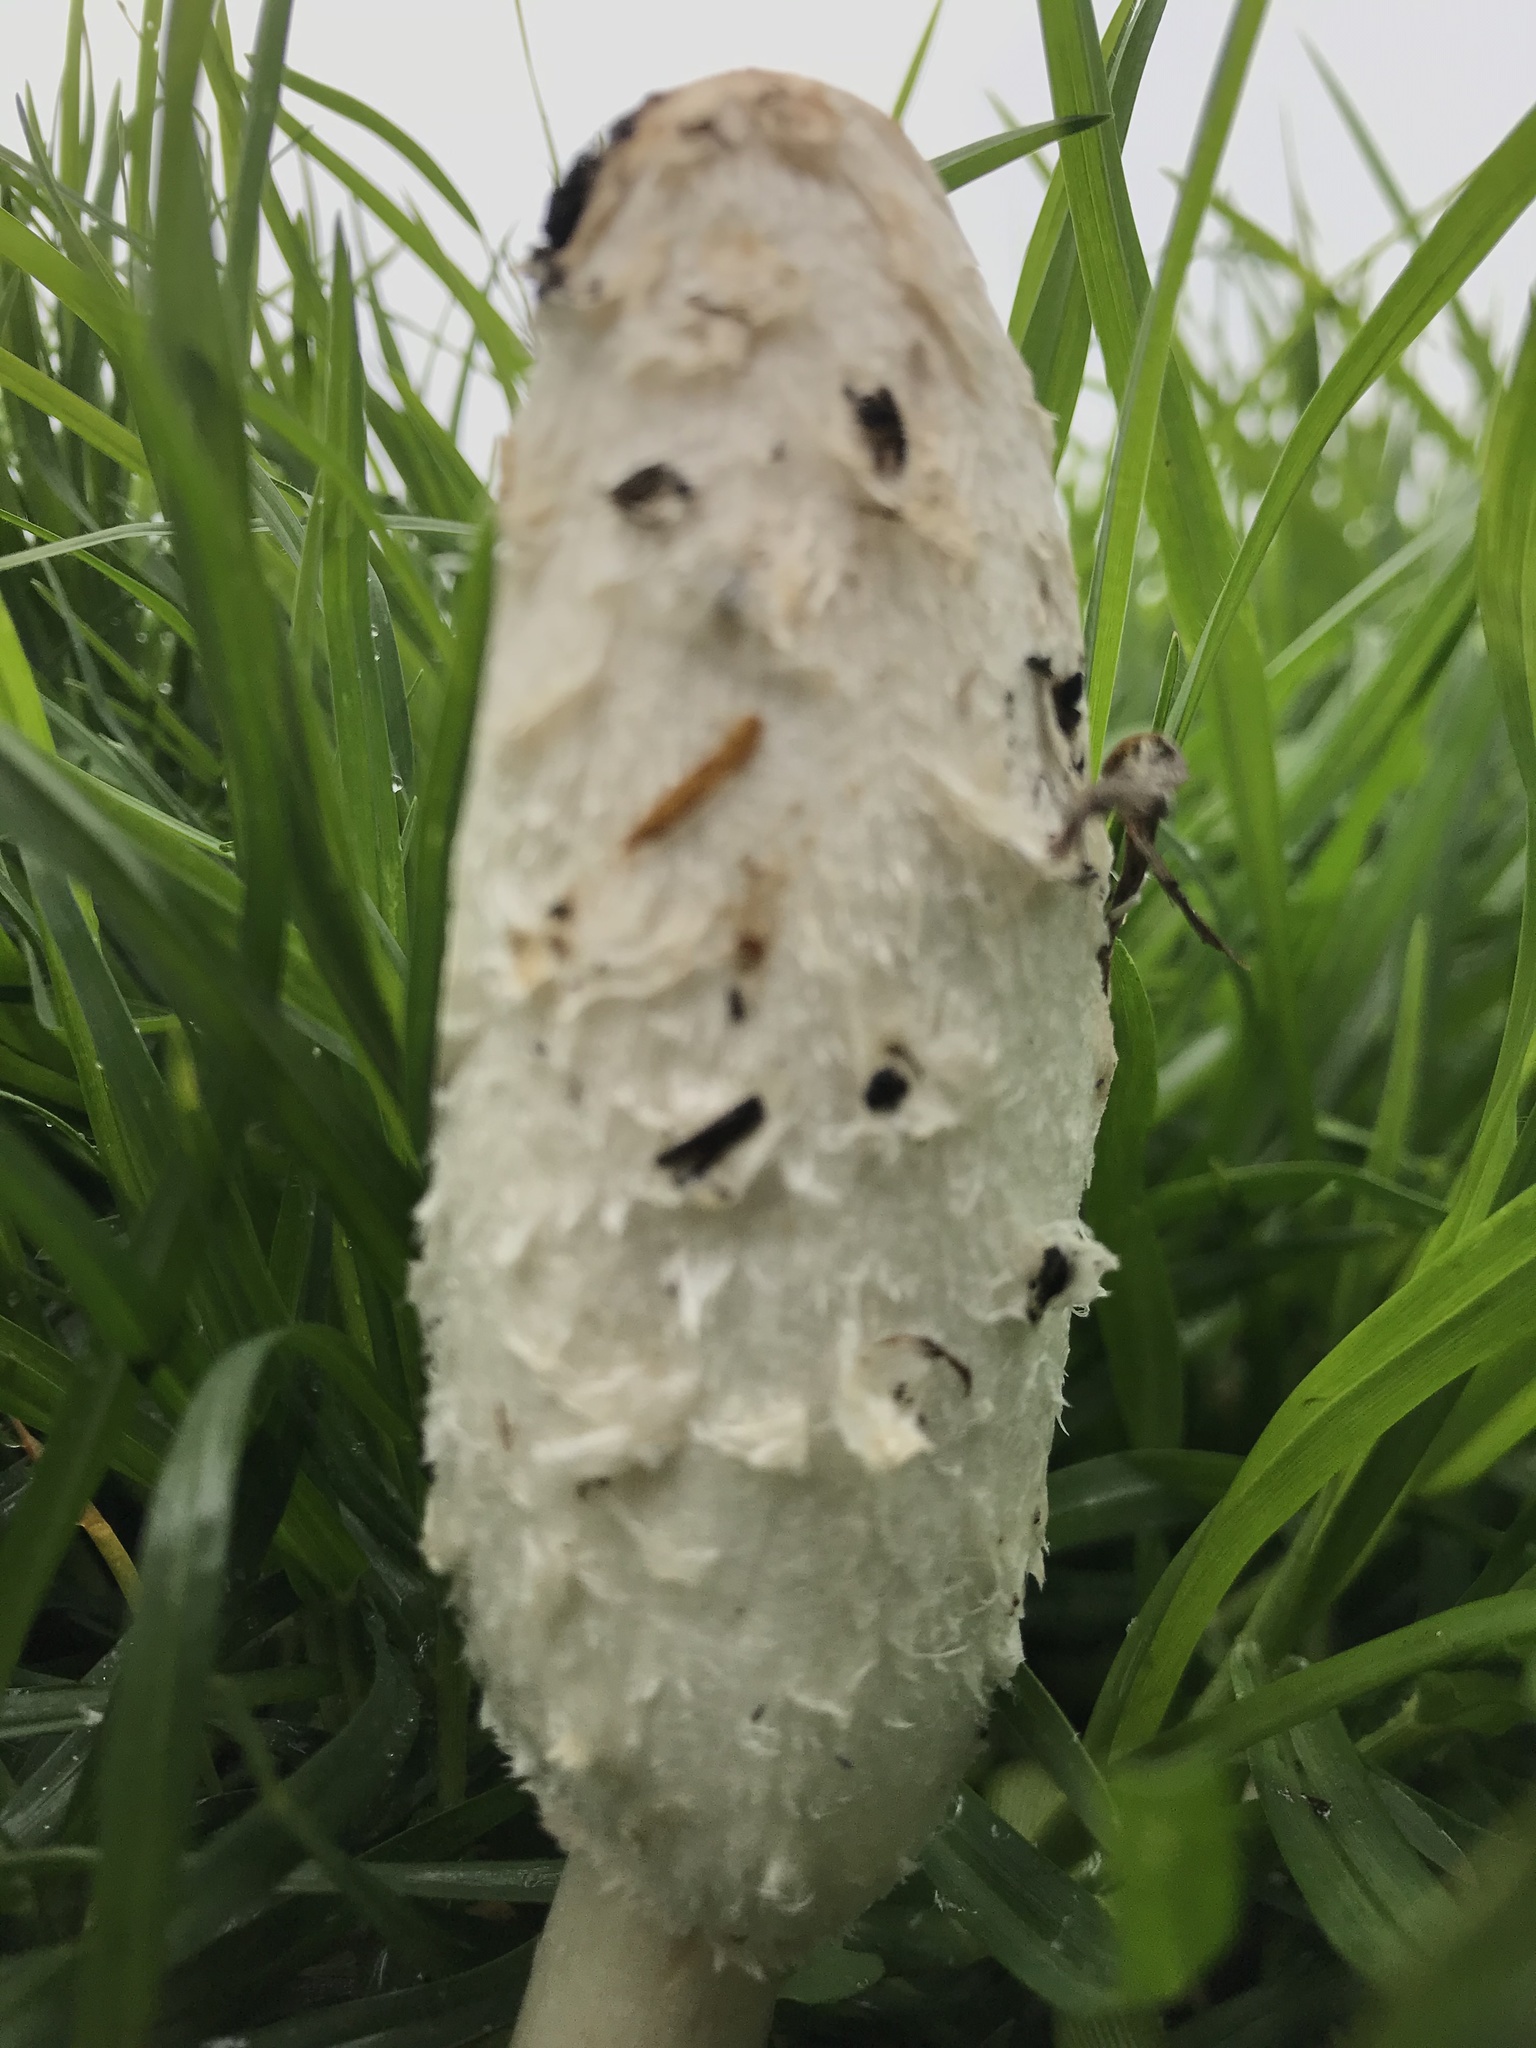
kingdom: Fungi
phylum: Basidiomycota
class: Agaricomycetes
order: Agaricales
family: Agaricaceae
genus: Coprinus
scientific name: Coprinus comatus
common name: Lawyer's wig
